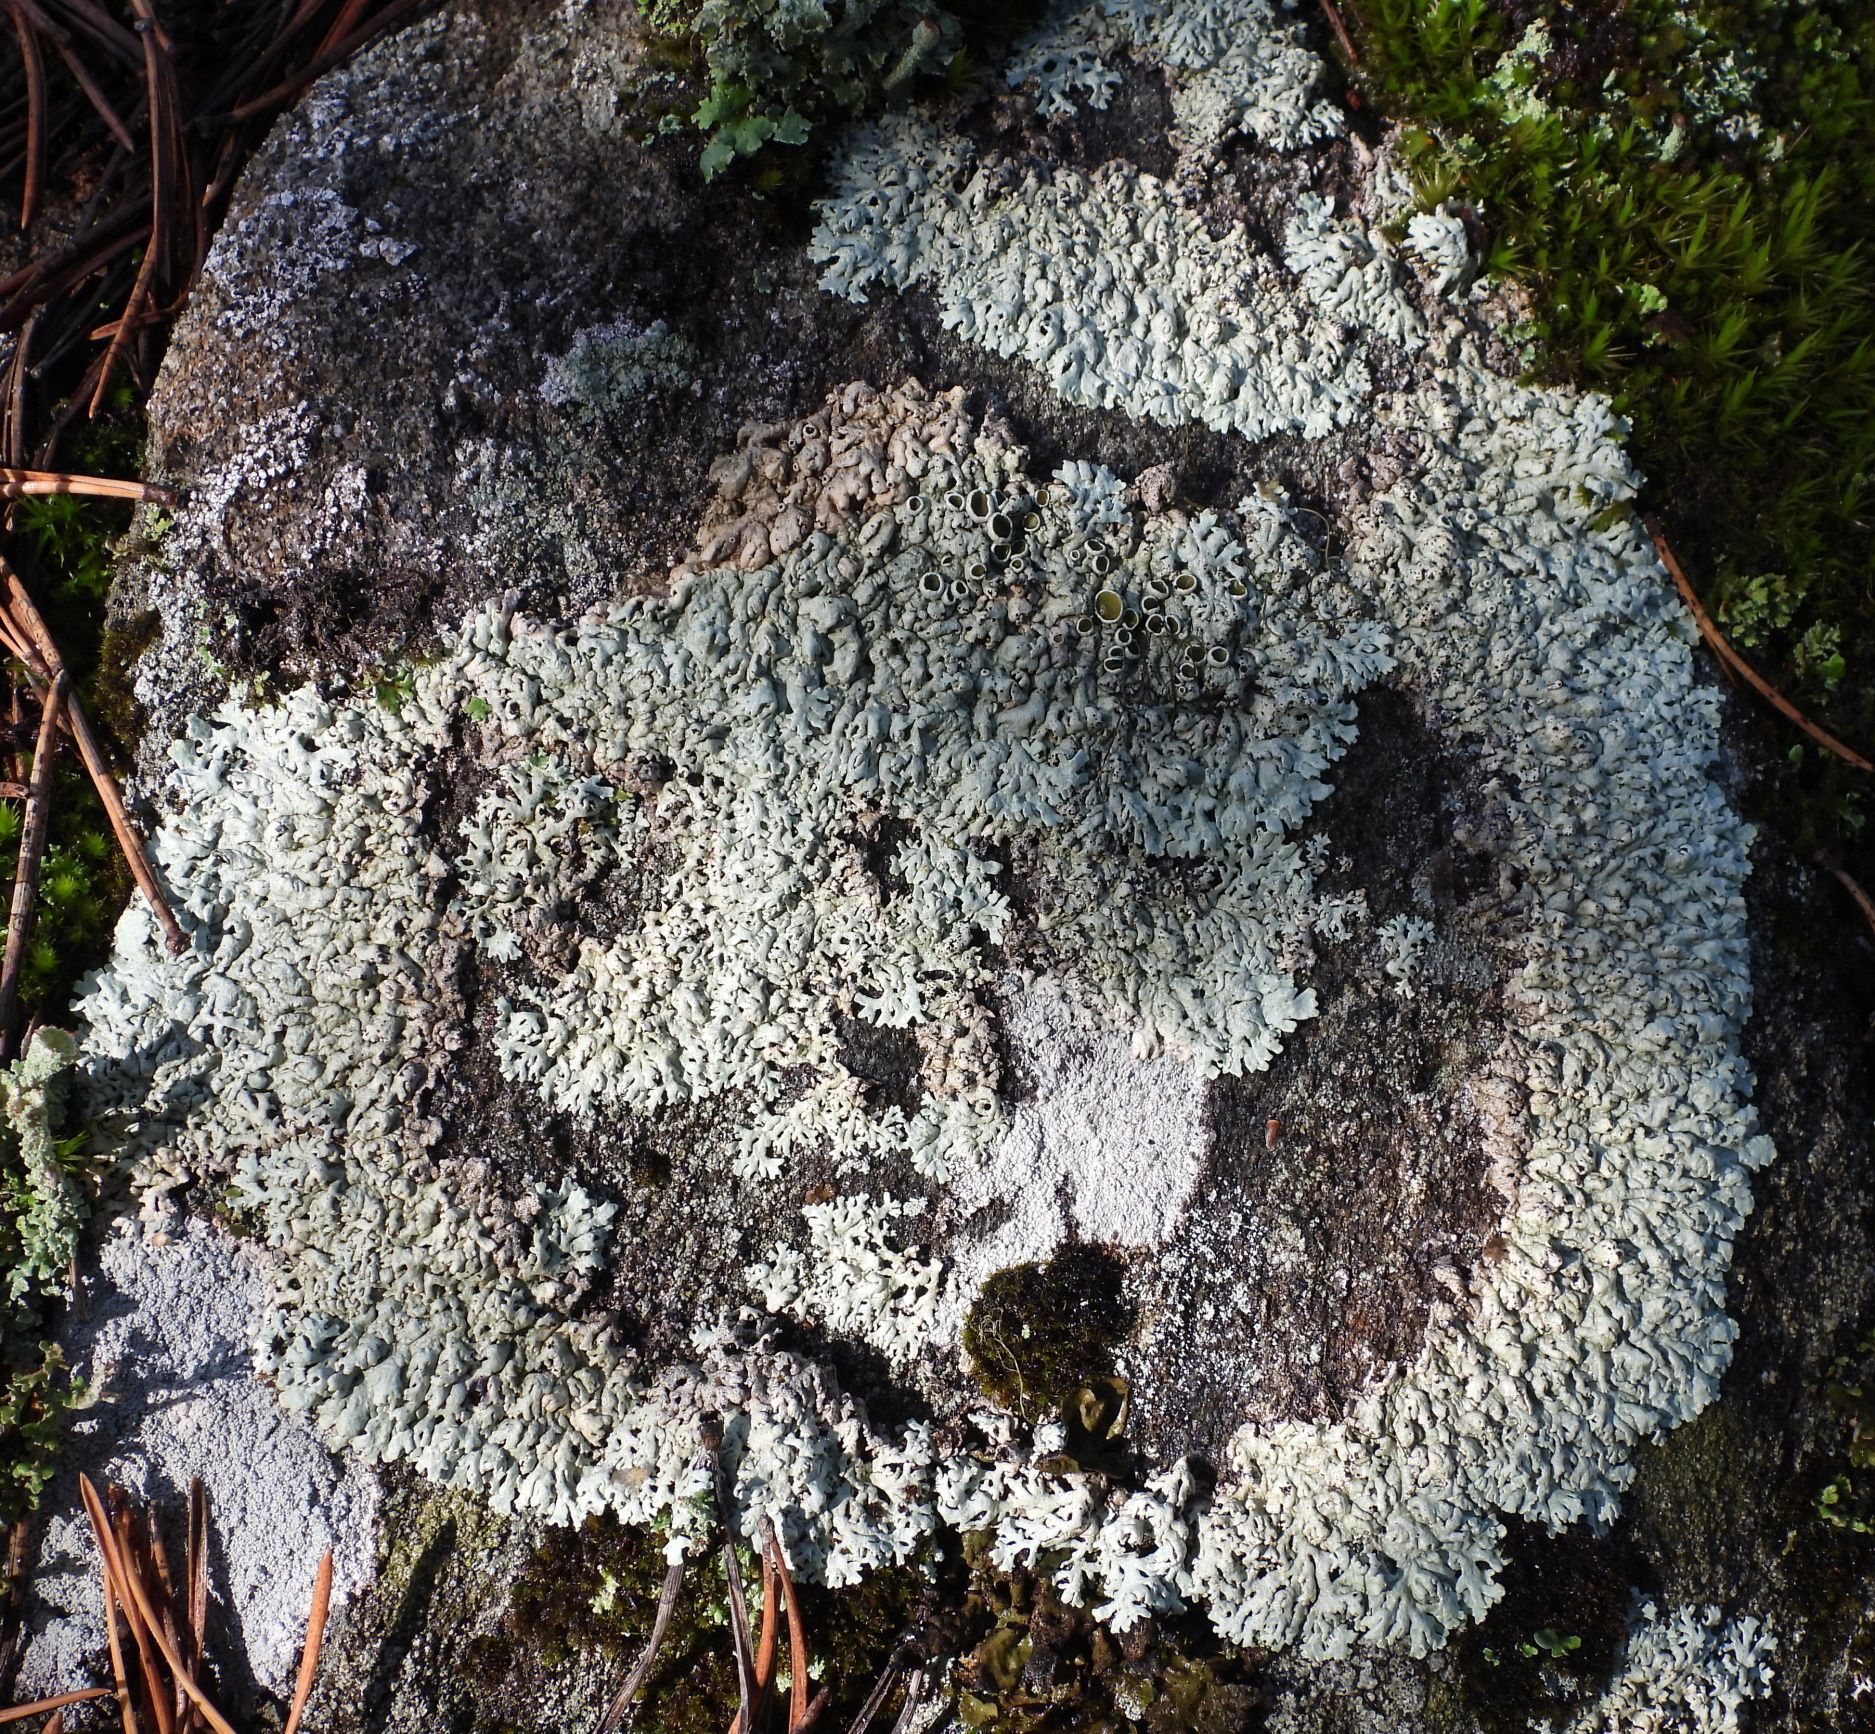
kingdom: Fungi
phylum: Ascomycota
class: Lecanoromycetes
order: Lecanorales
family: Parmeliaceae
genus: Arctoparmelia
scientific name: Arctoparmelia centrifuga
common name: Concentric ring lichen
